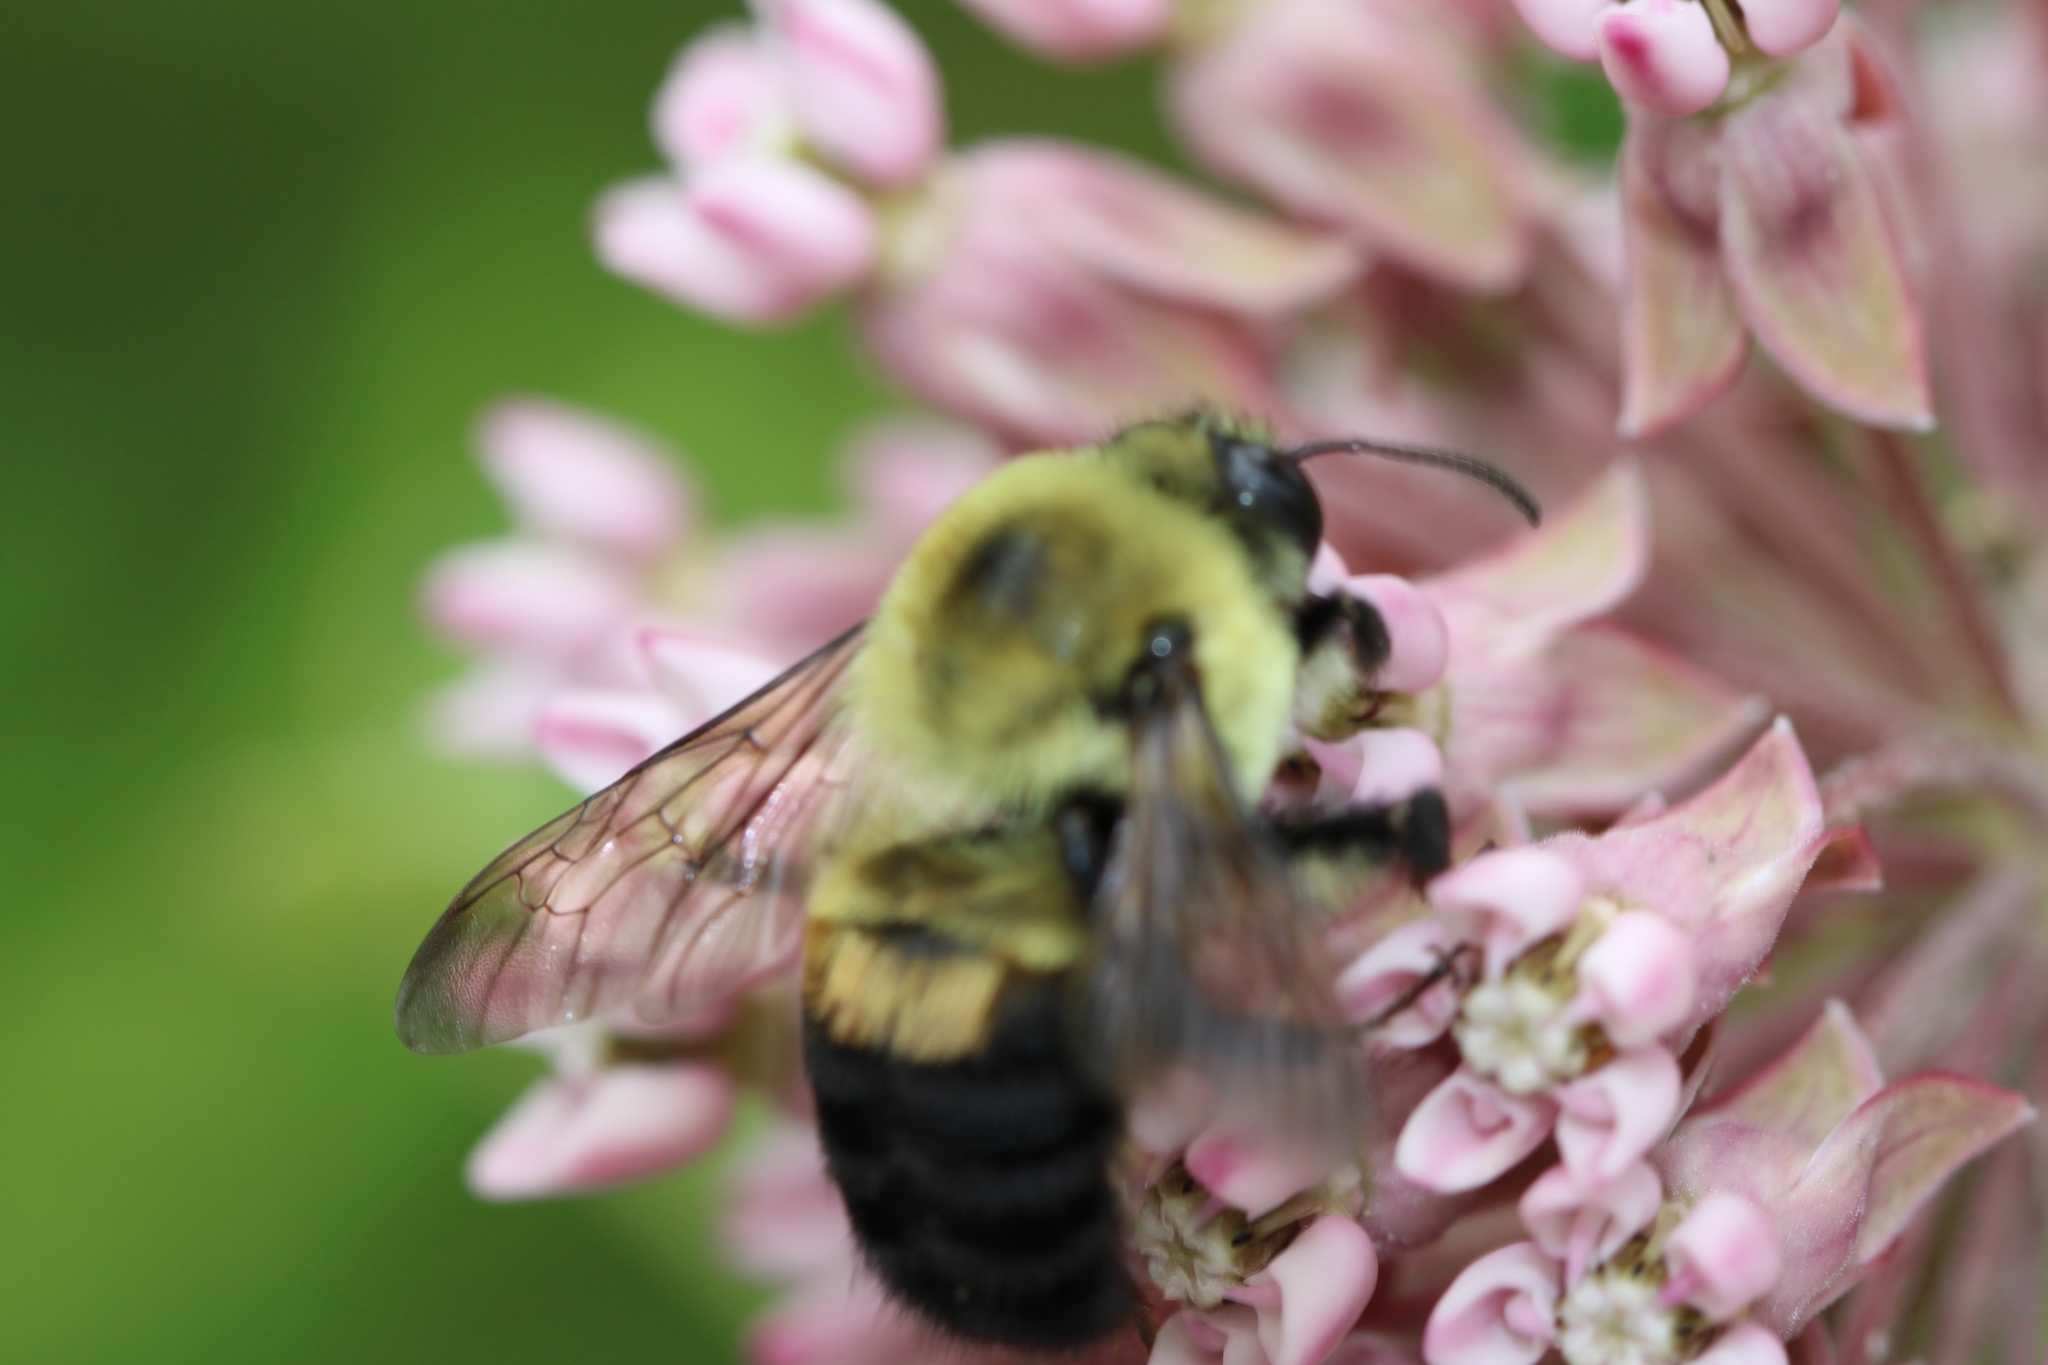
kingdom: Animalia
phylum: Arthropoda
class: Insecta
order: Hymenoptera
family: Apidae
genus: Bombus
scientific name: Bombus griseocollis
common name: Brown-belted bumble bee
